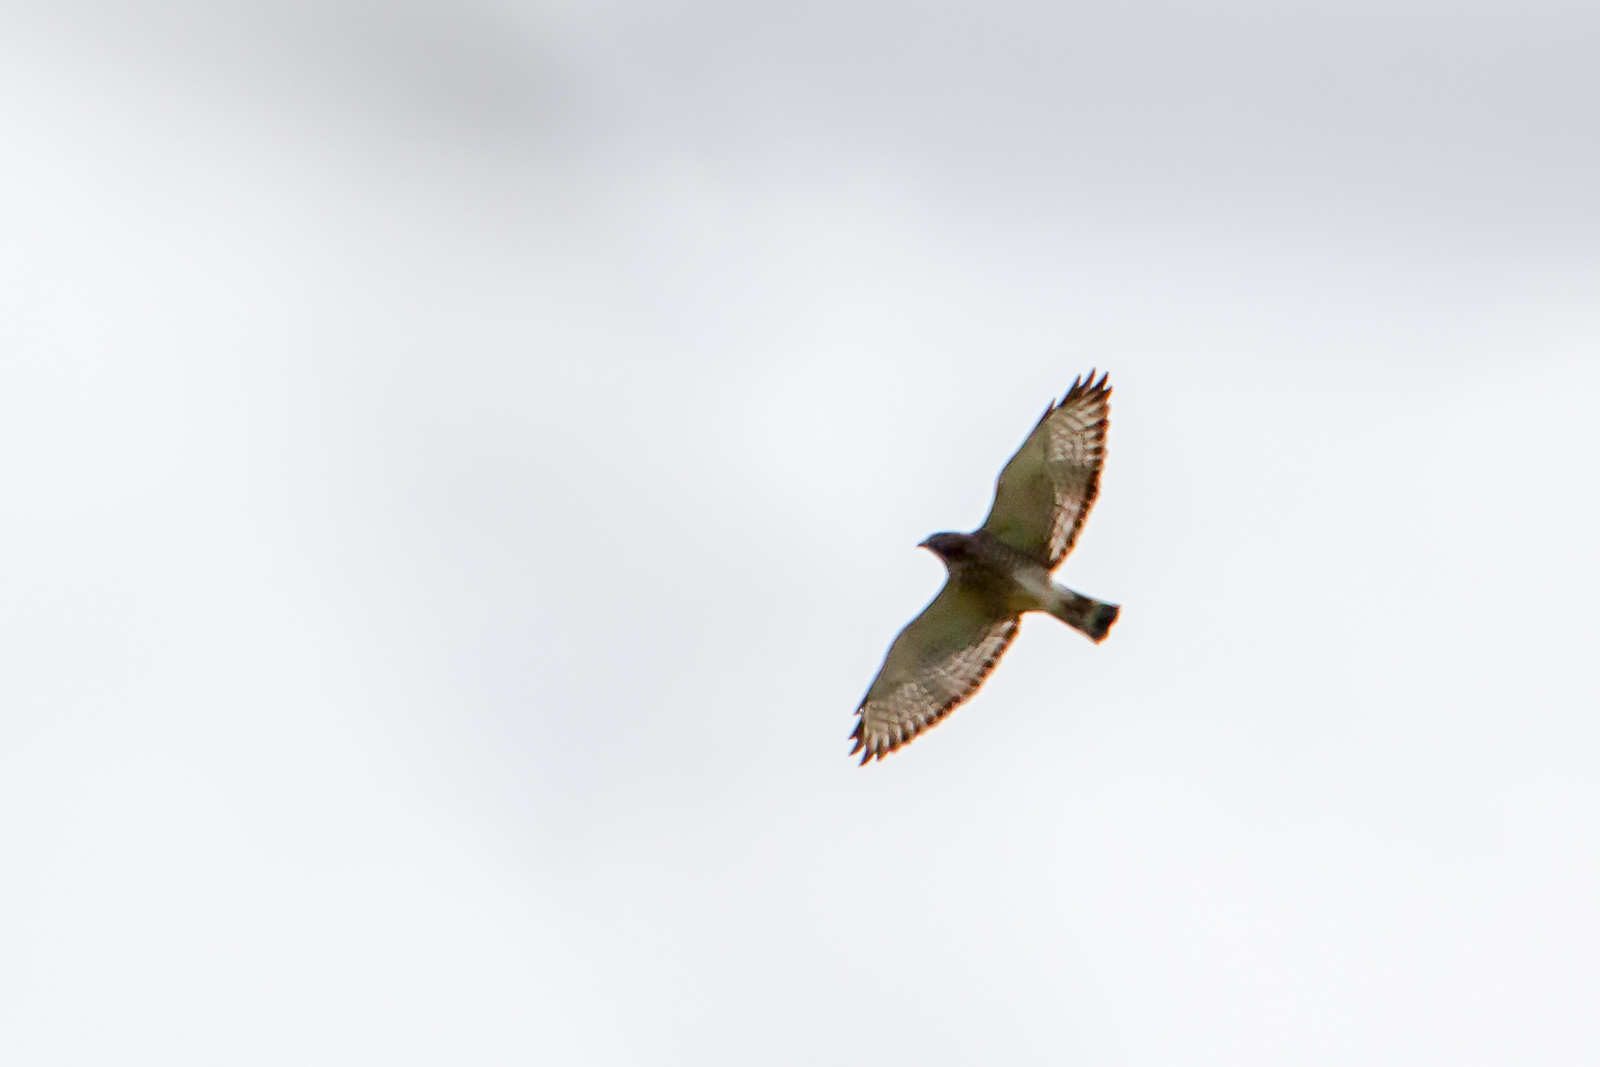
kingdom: Animalia
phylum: Chordata
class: Aves
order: Accipitriformes
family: Accipitridae
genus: Buteo
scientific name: Buteo platypterus
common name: Broad-winged hawk
